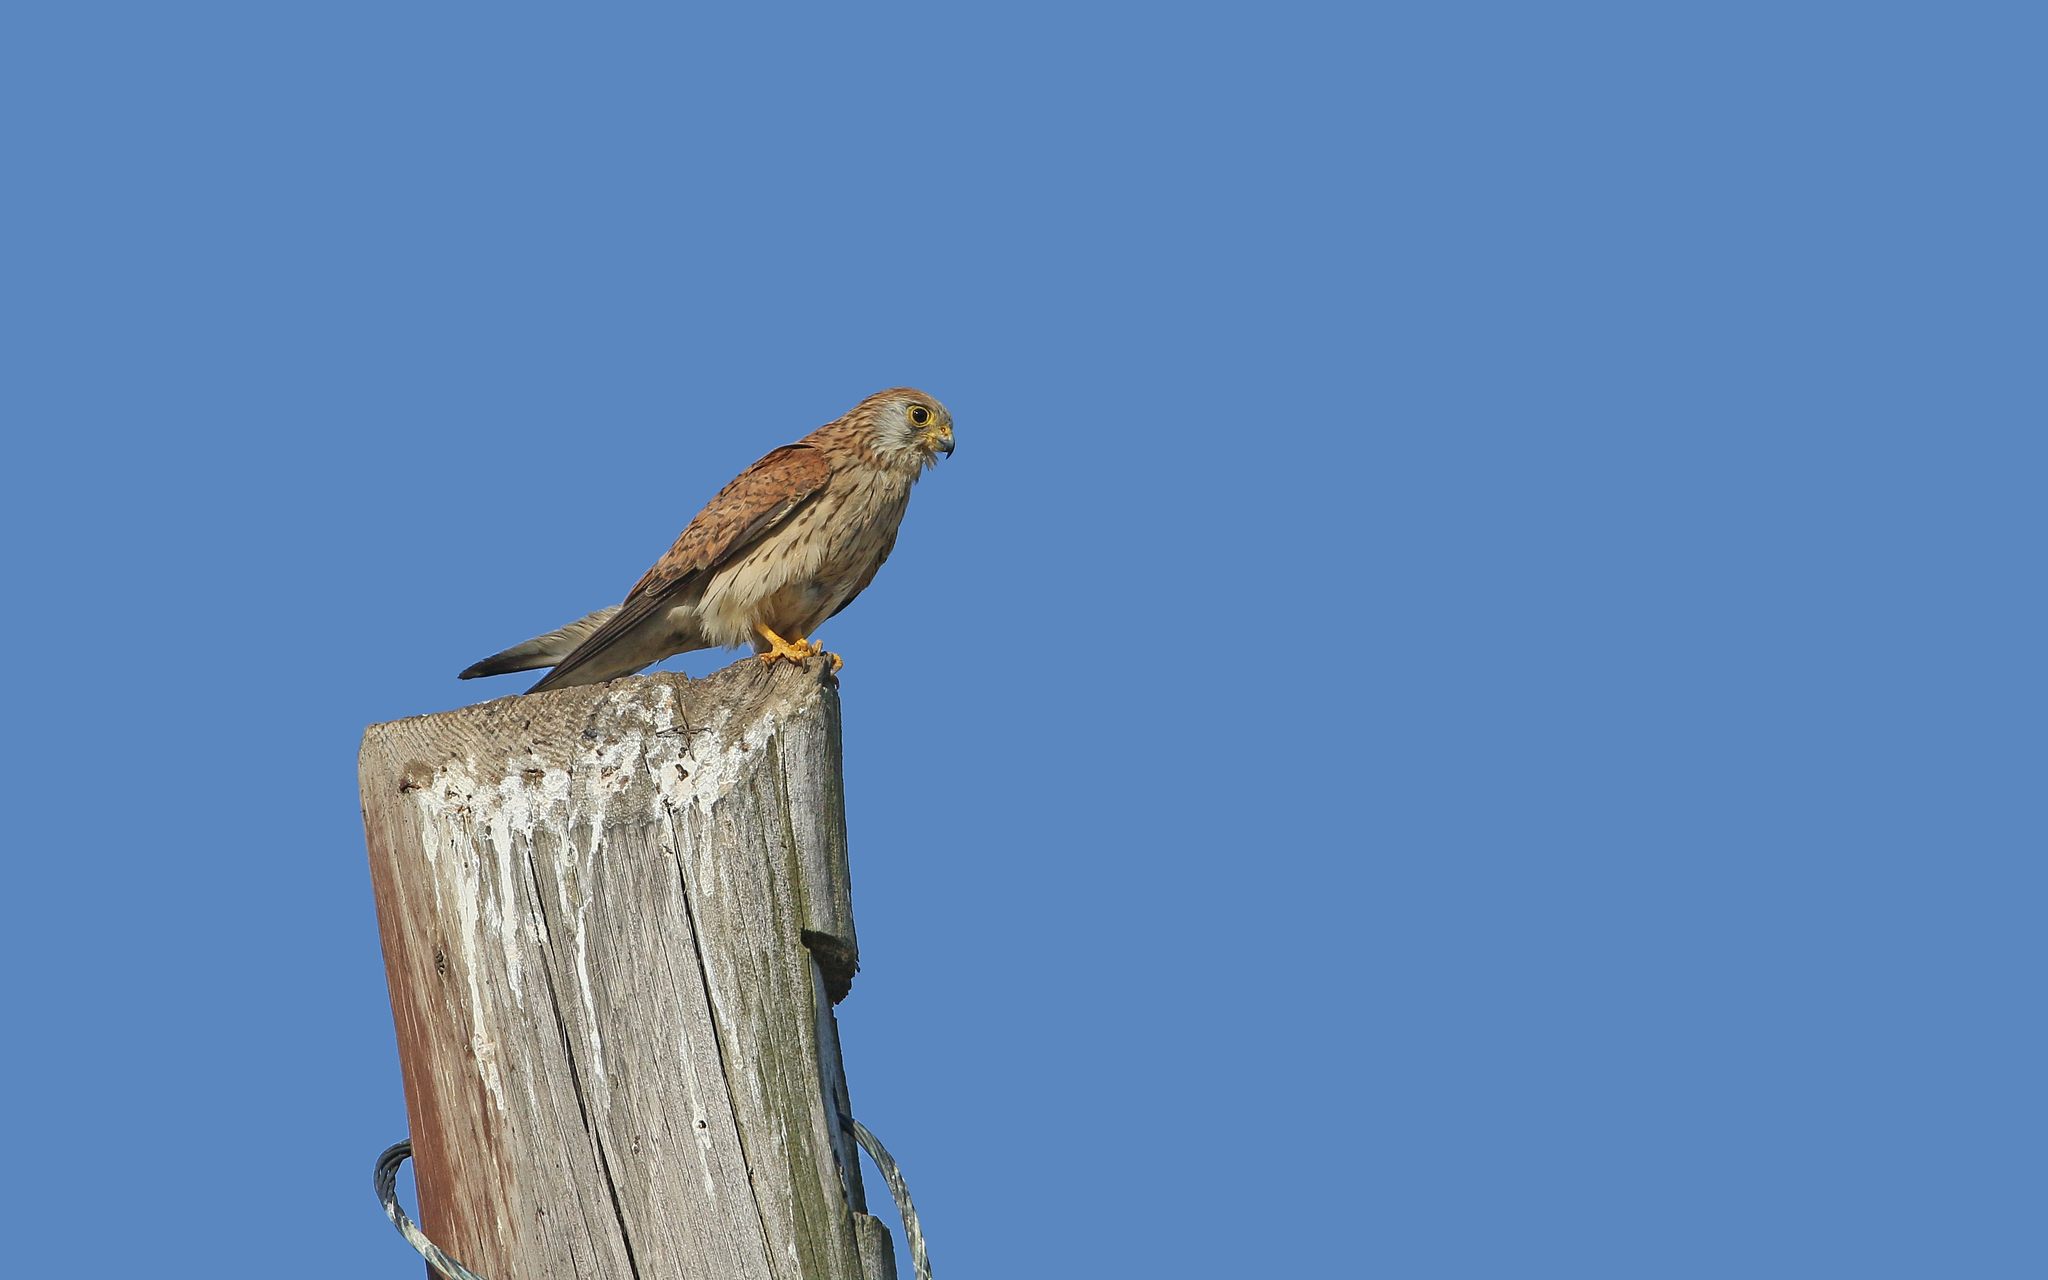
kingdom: Animalia
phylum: Chordata
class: Aves
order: Falconiformes
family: Falconidae
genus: Falco
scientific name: Falco naumanni
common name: Lesser kestrel
